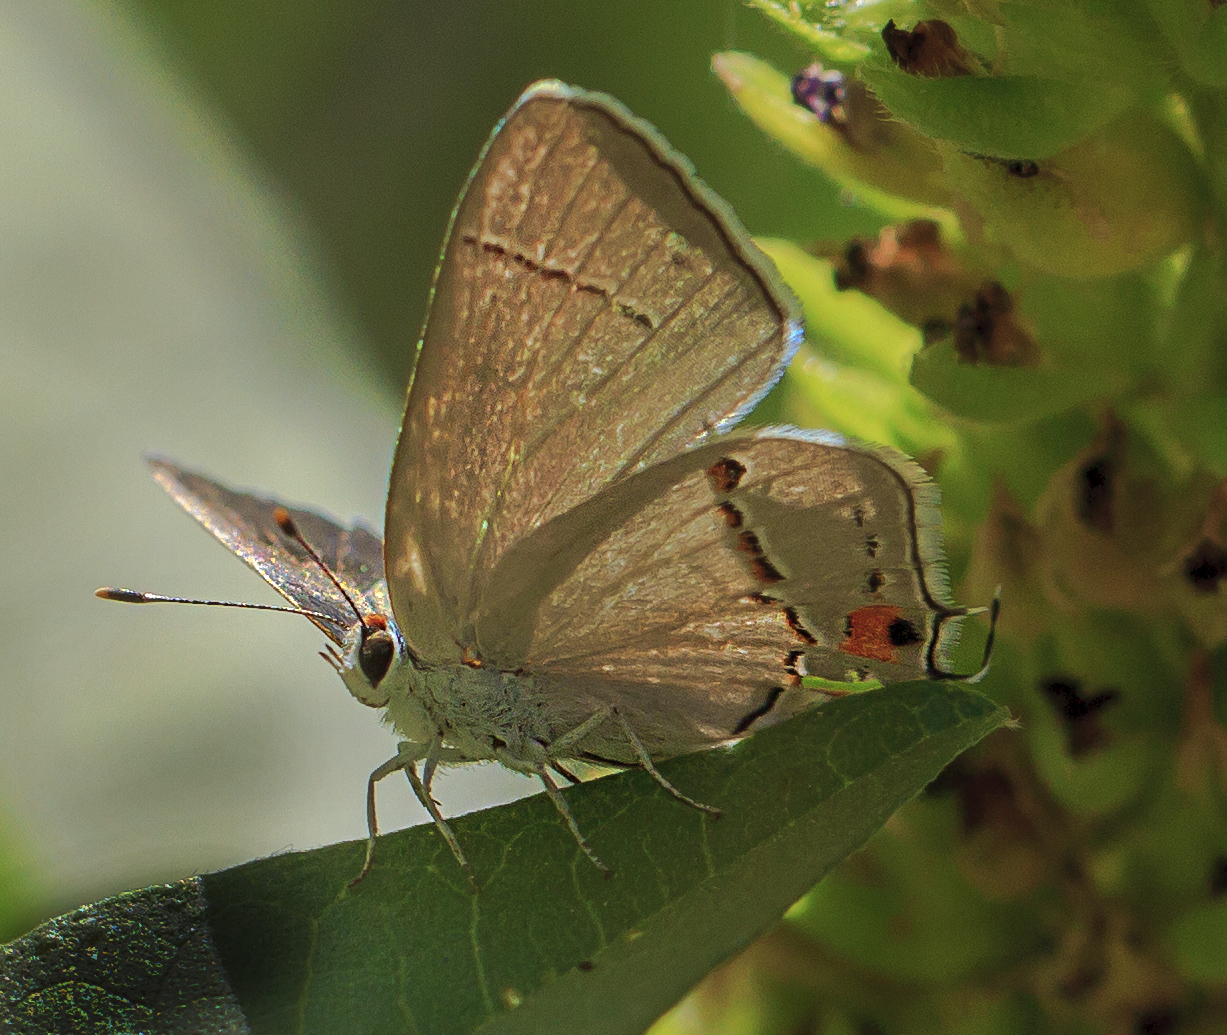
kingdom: Animalia
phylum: Arthropoda
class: Insecta
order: Lepidoptera
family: Lycaenidae
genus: Strymon
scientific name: Strymon melinus
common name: Gray hairstreak
